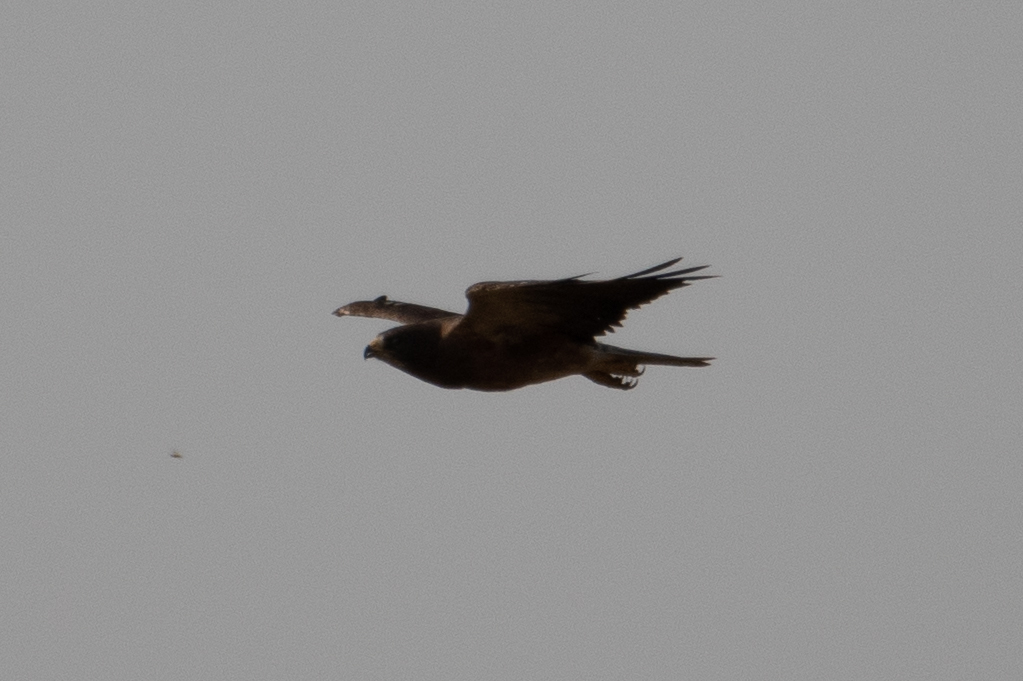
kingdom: Animalia
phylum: Chordata
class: Aves
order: Accipitriformes
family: Accipitridae
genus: Buteo
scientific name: Buteo swainsoni
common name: Swainson's hawk
